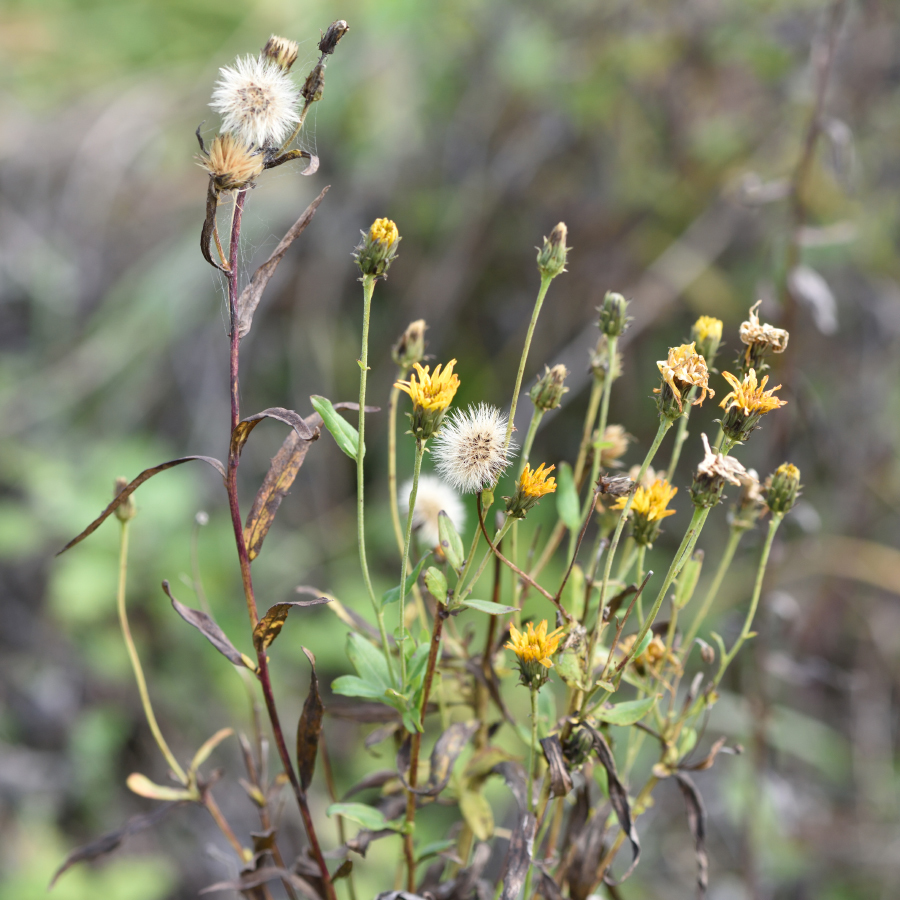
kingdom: Plantae
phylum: Tracheophyta
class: Magnoliopsida
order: Asterales
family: Asteraceae
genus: Hieracium
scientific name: Hieracium umbellatum
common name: Northern hawkweed
